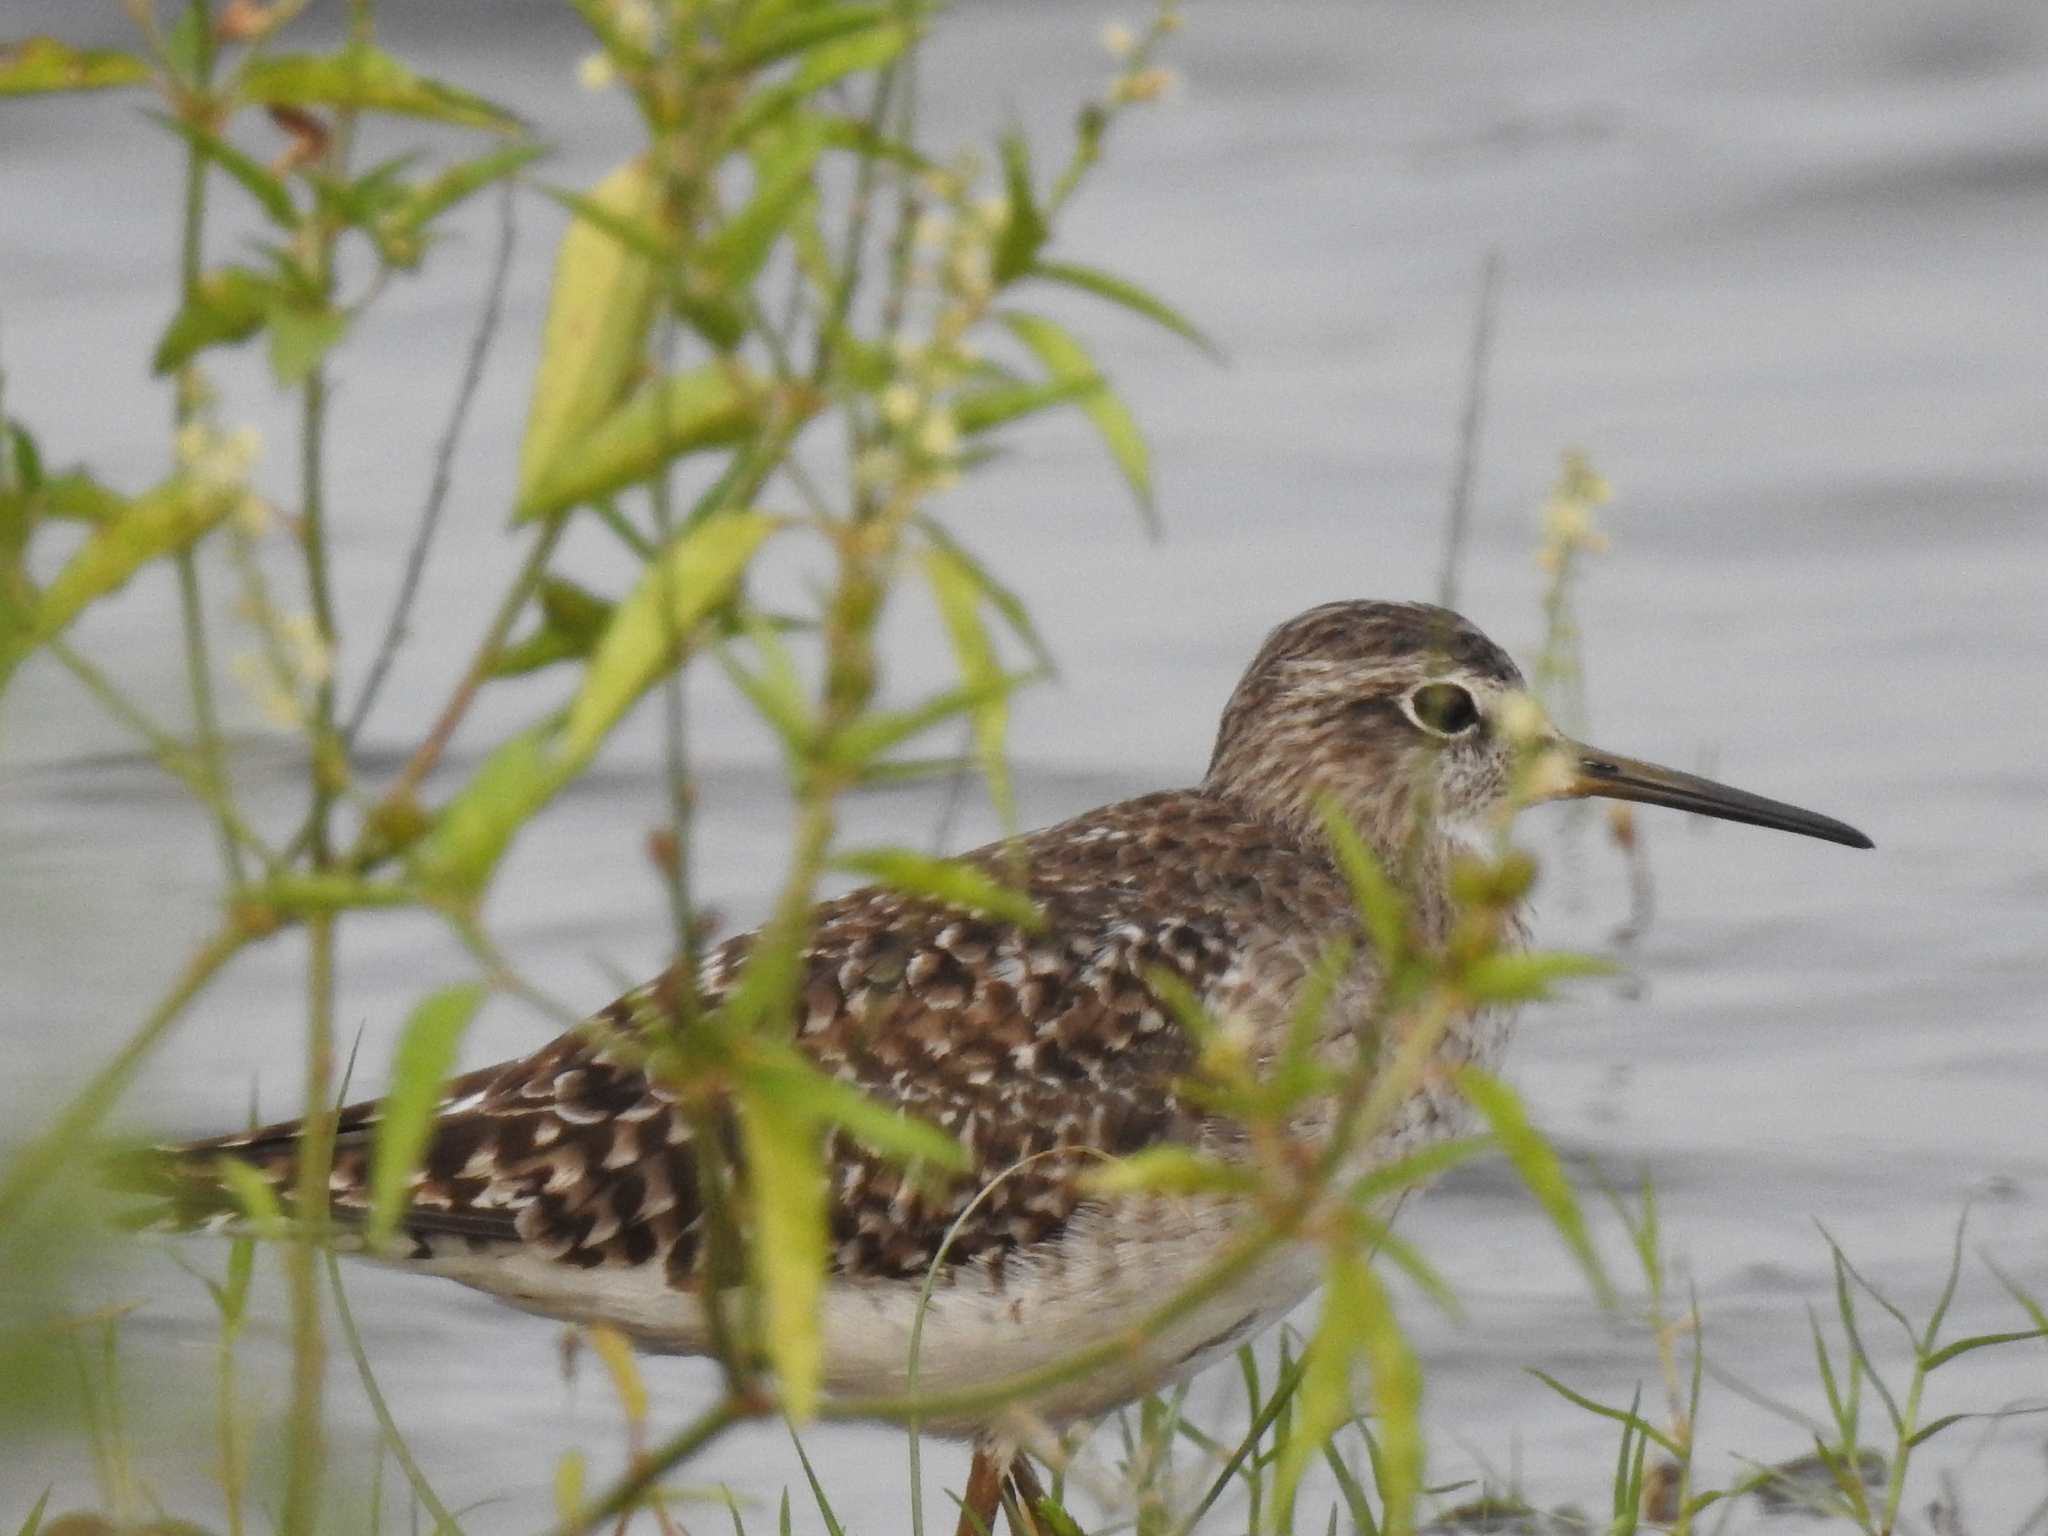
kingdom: Animalia
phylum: Chordata
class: Aves
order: Charadriiformes
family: Scolopacidae
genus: Tringa
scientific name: Tringa glareola
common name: Wood sandpiper
